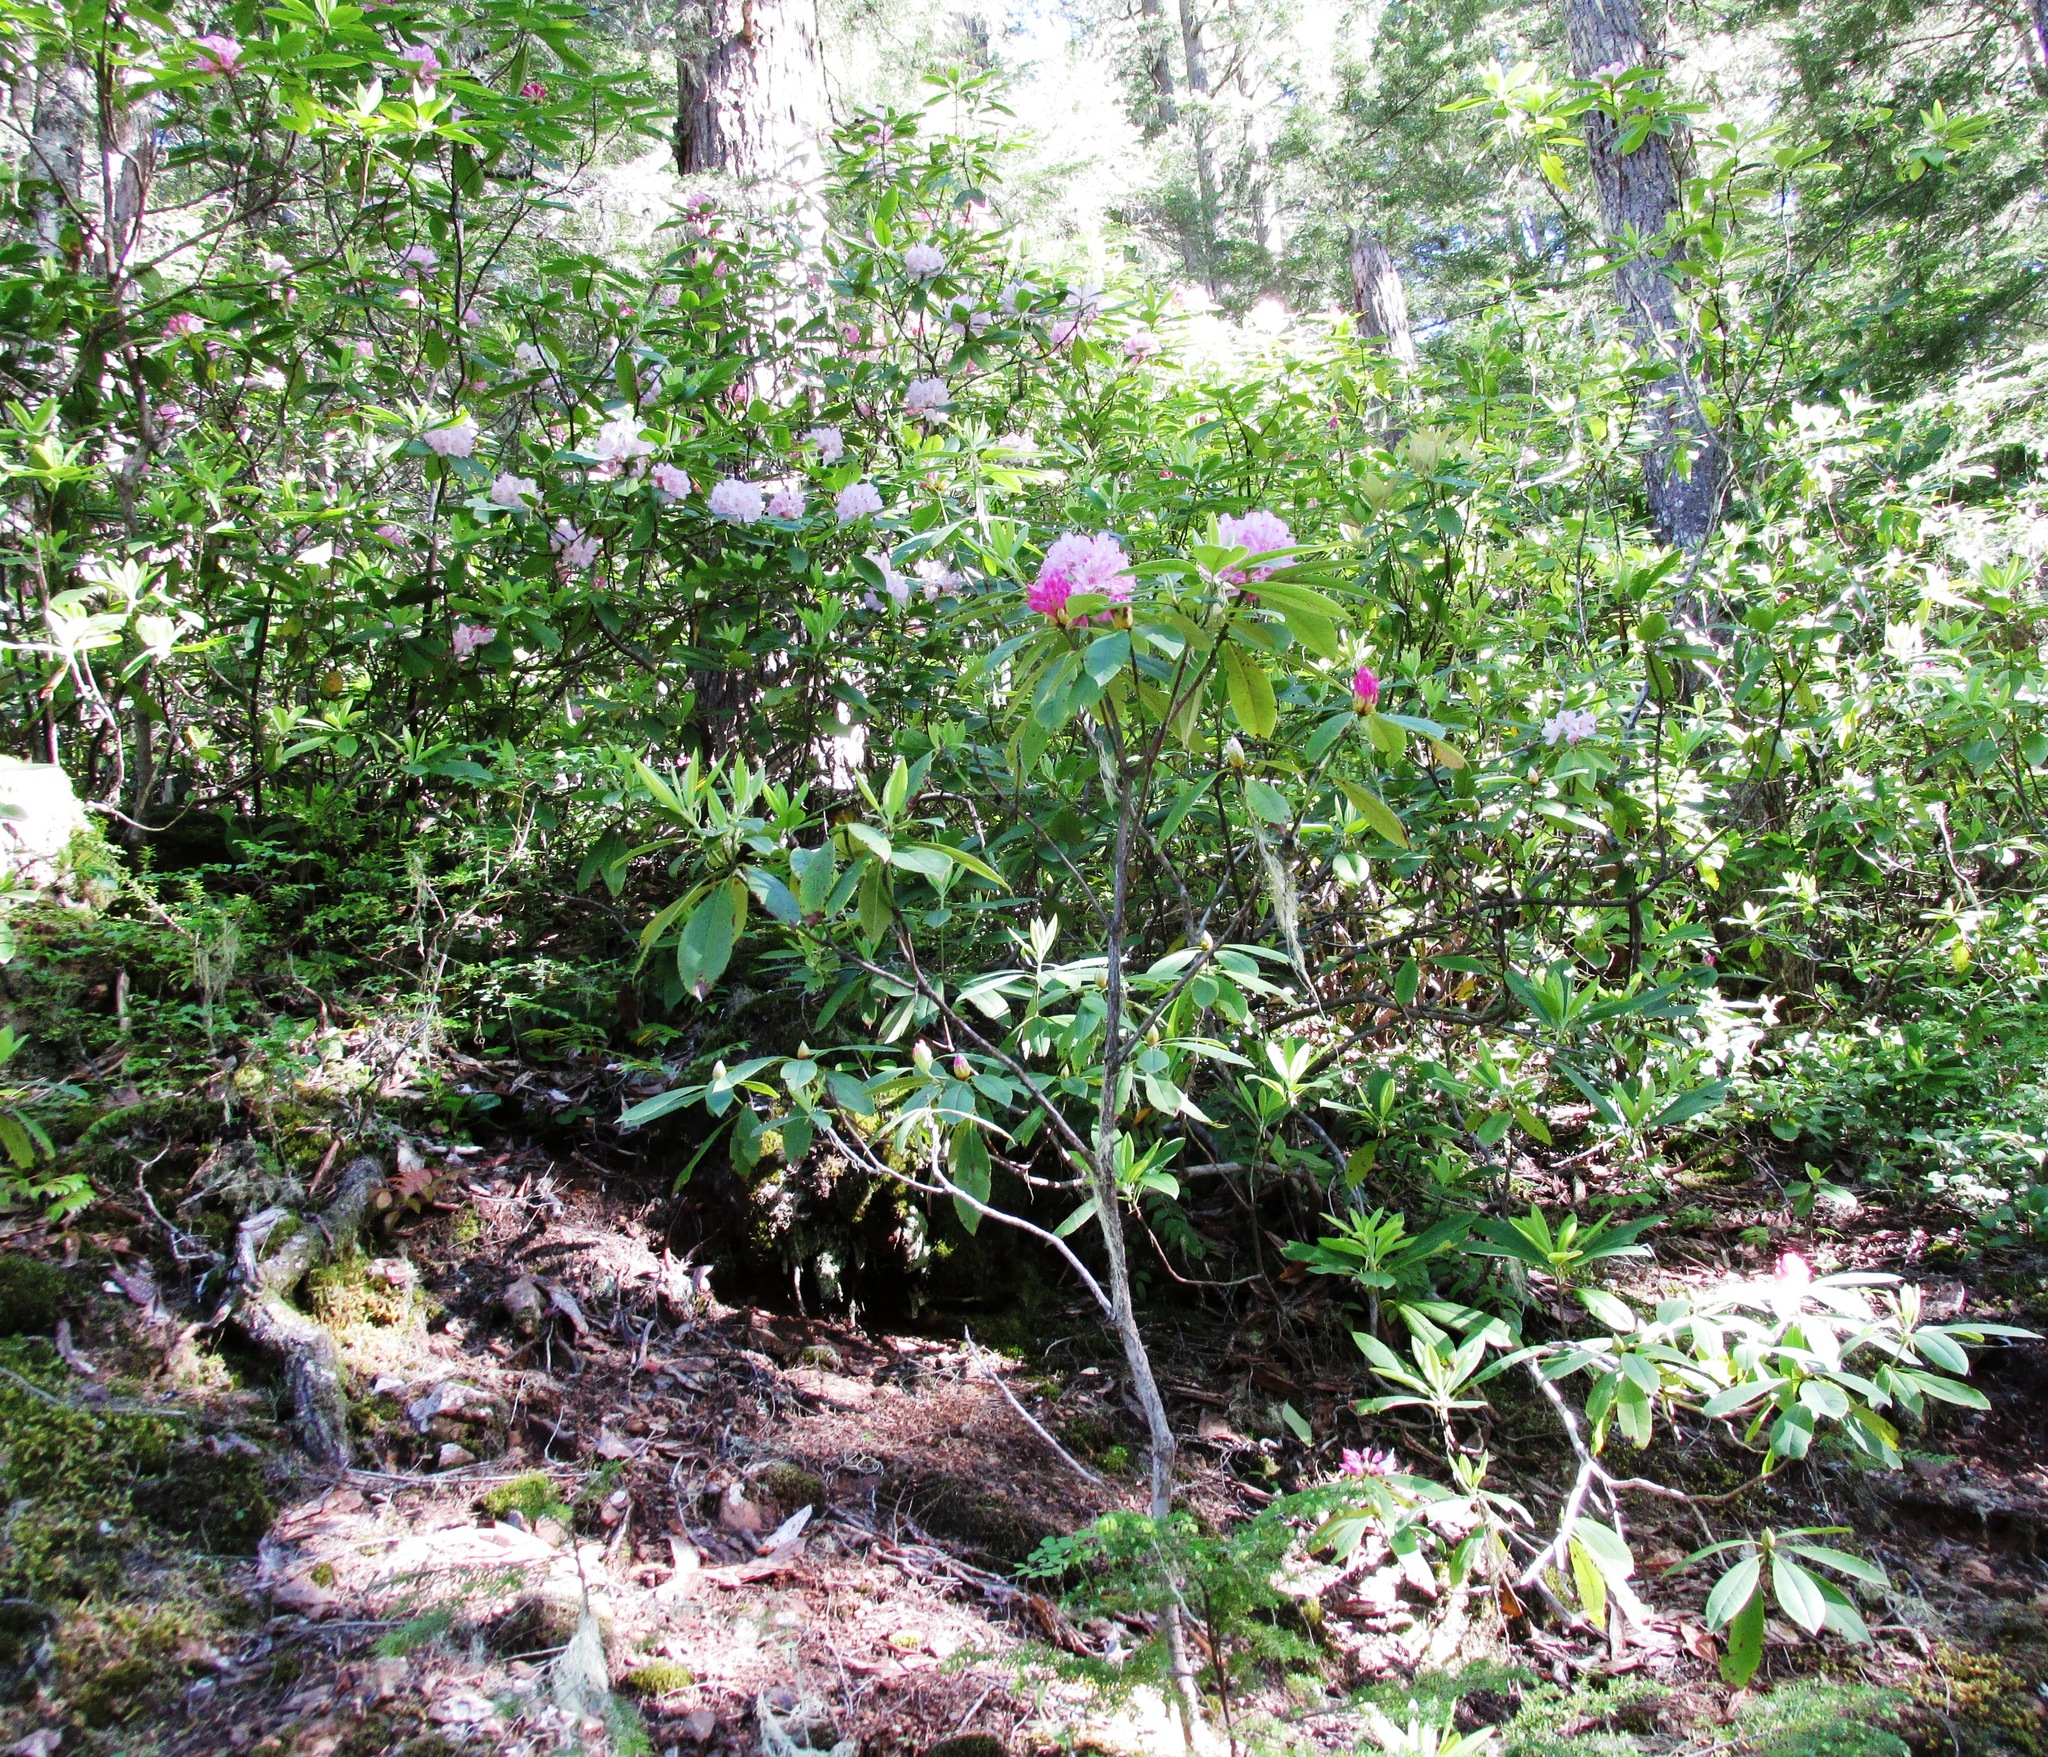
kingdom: Plantae
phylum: Tracheophyta
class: Magnoliopsida
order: Ericales
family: Ericaceae
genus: Rhododendron
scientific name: Rhododendron macrophyllum
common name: California rose bay
